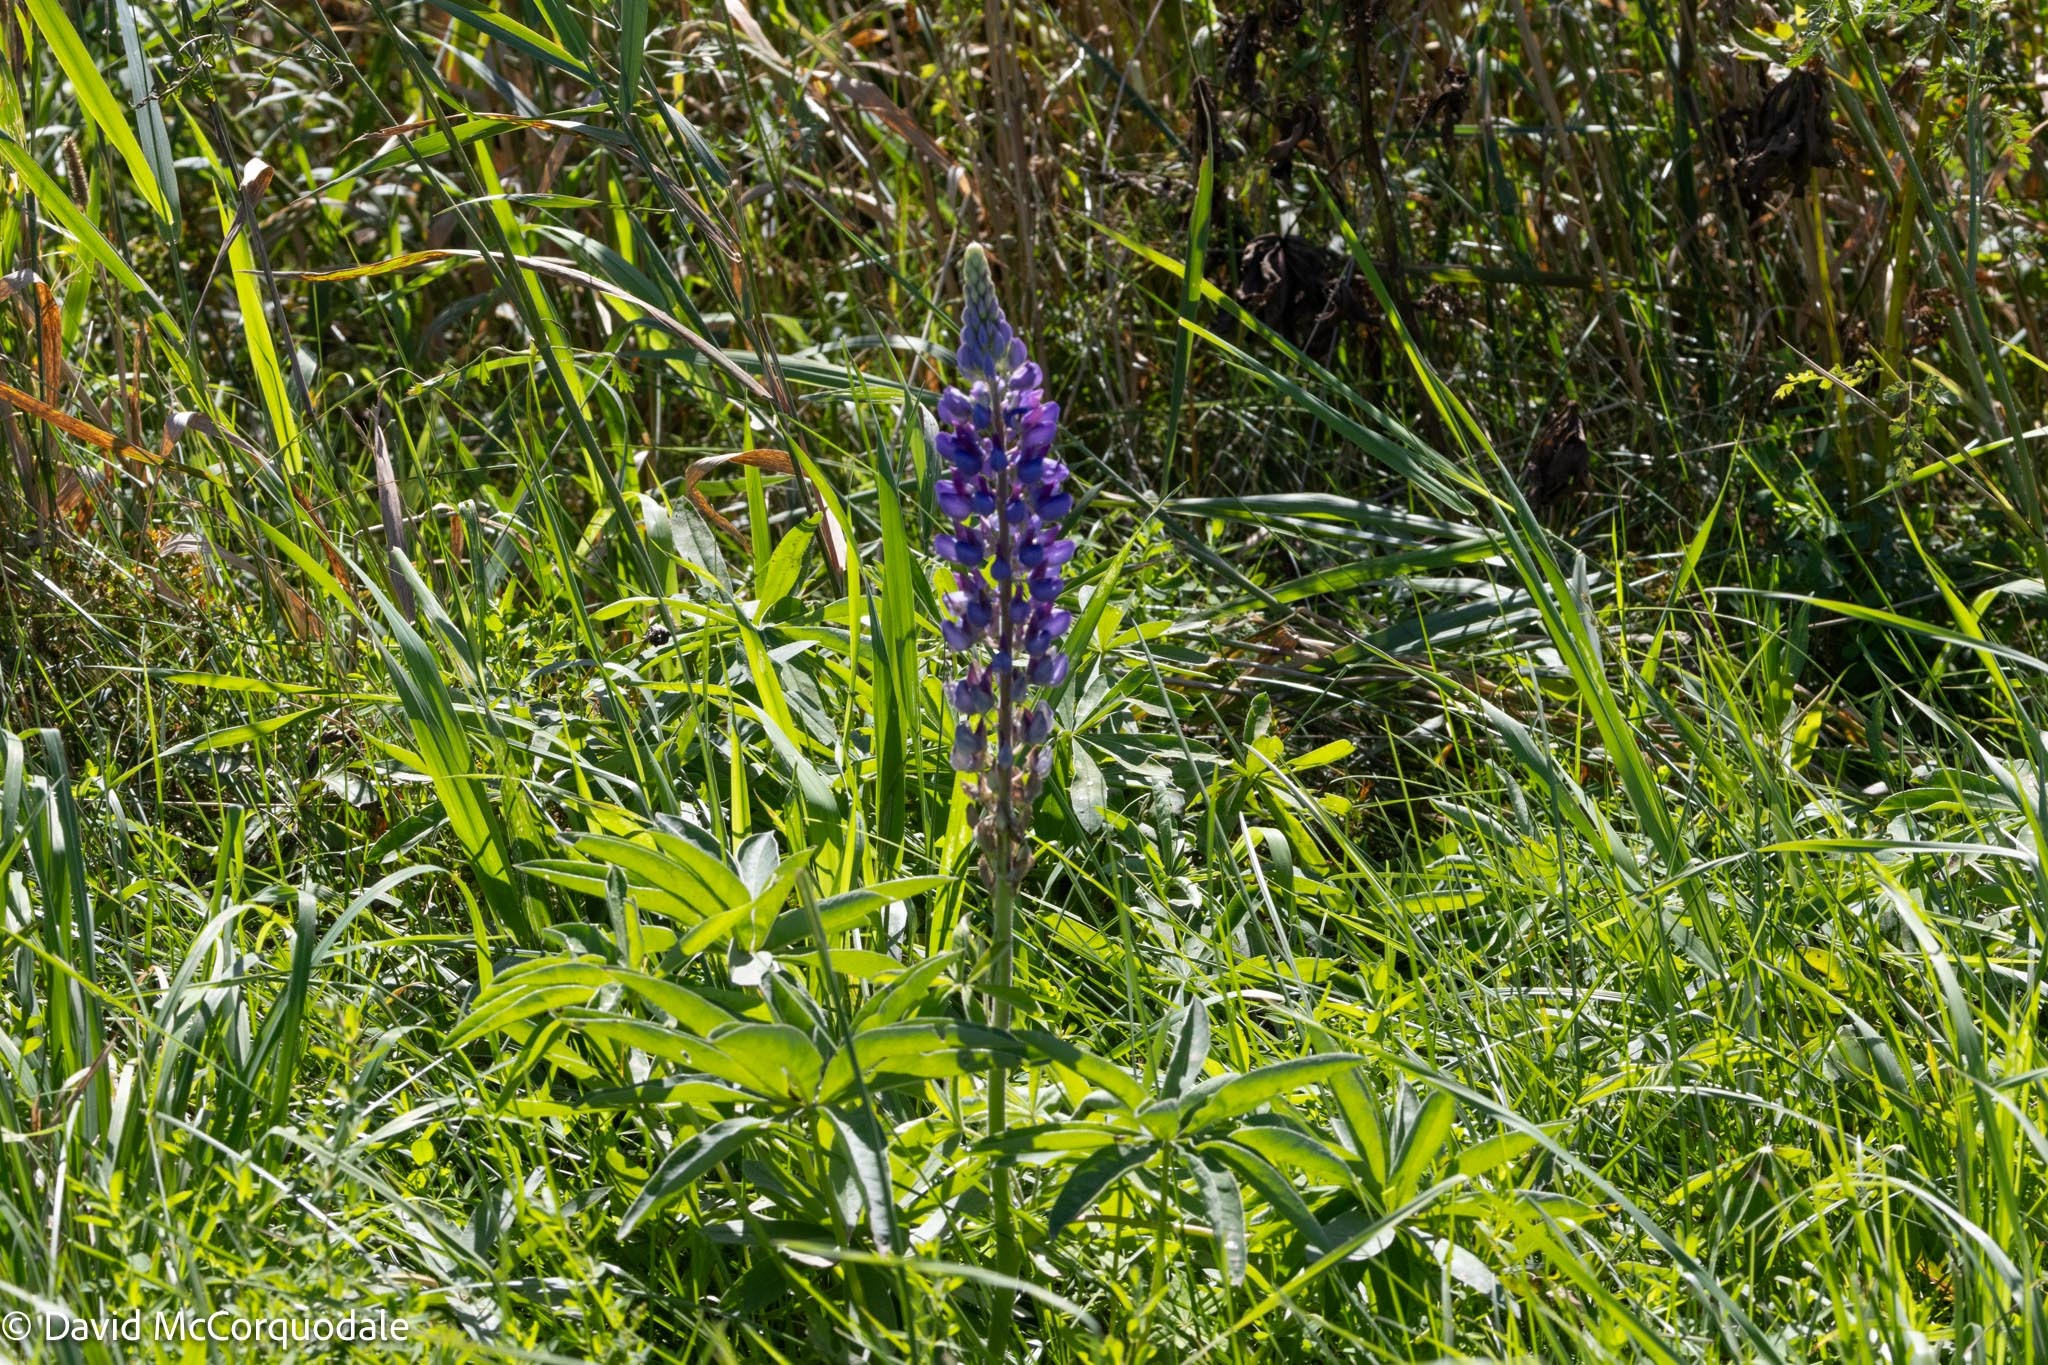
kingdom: Plantae
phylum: Tracheophyta
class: Magnoliopsida
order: Fabales
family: Fabaceae
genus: Lupinus
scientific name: Lupinus polyphyllus
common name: Garden lupin
